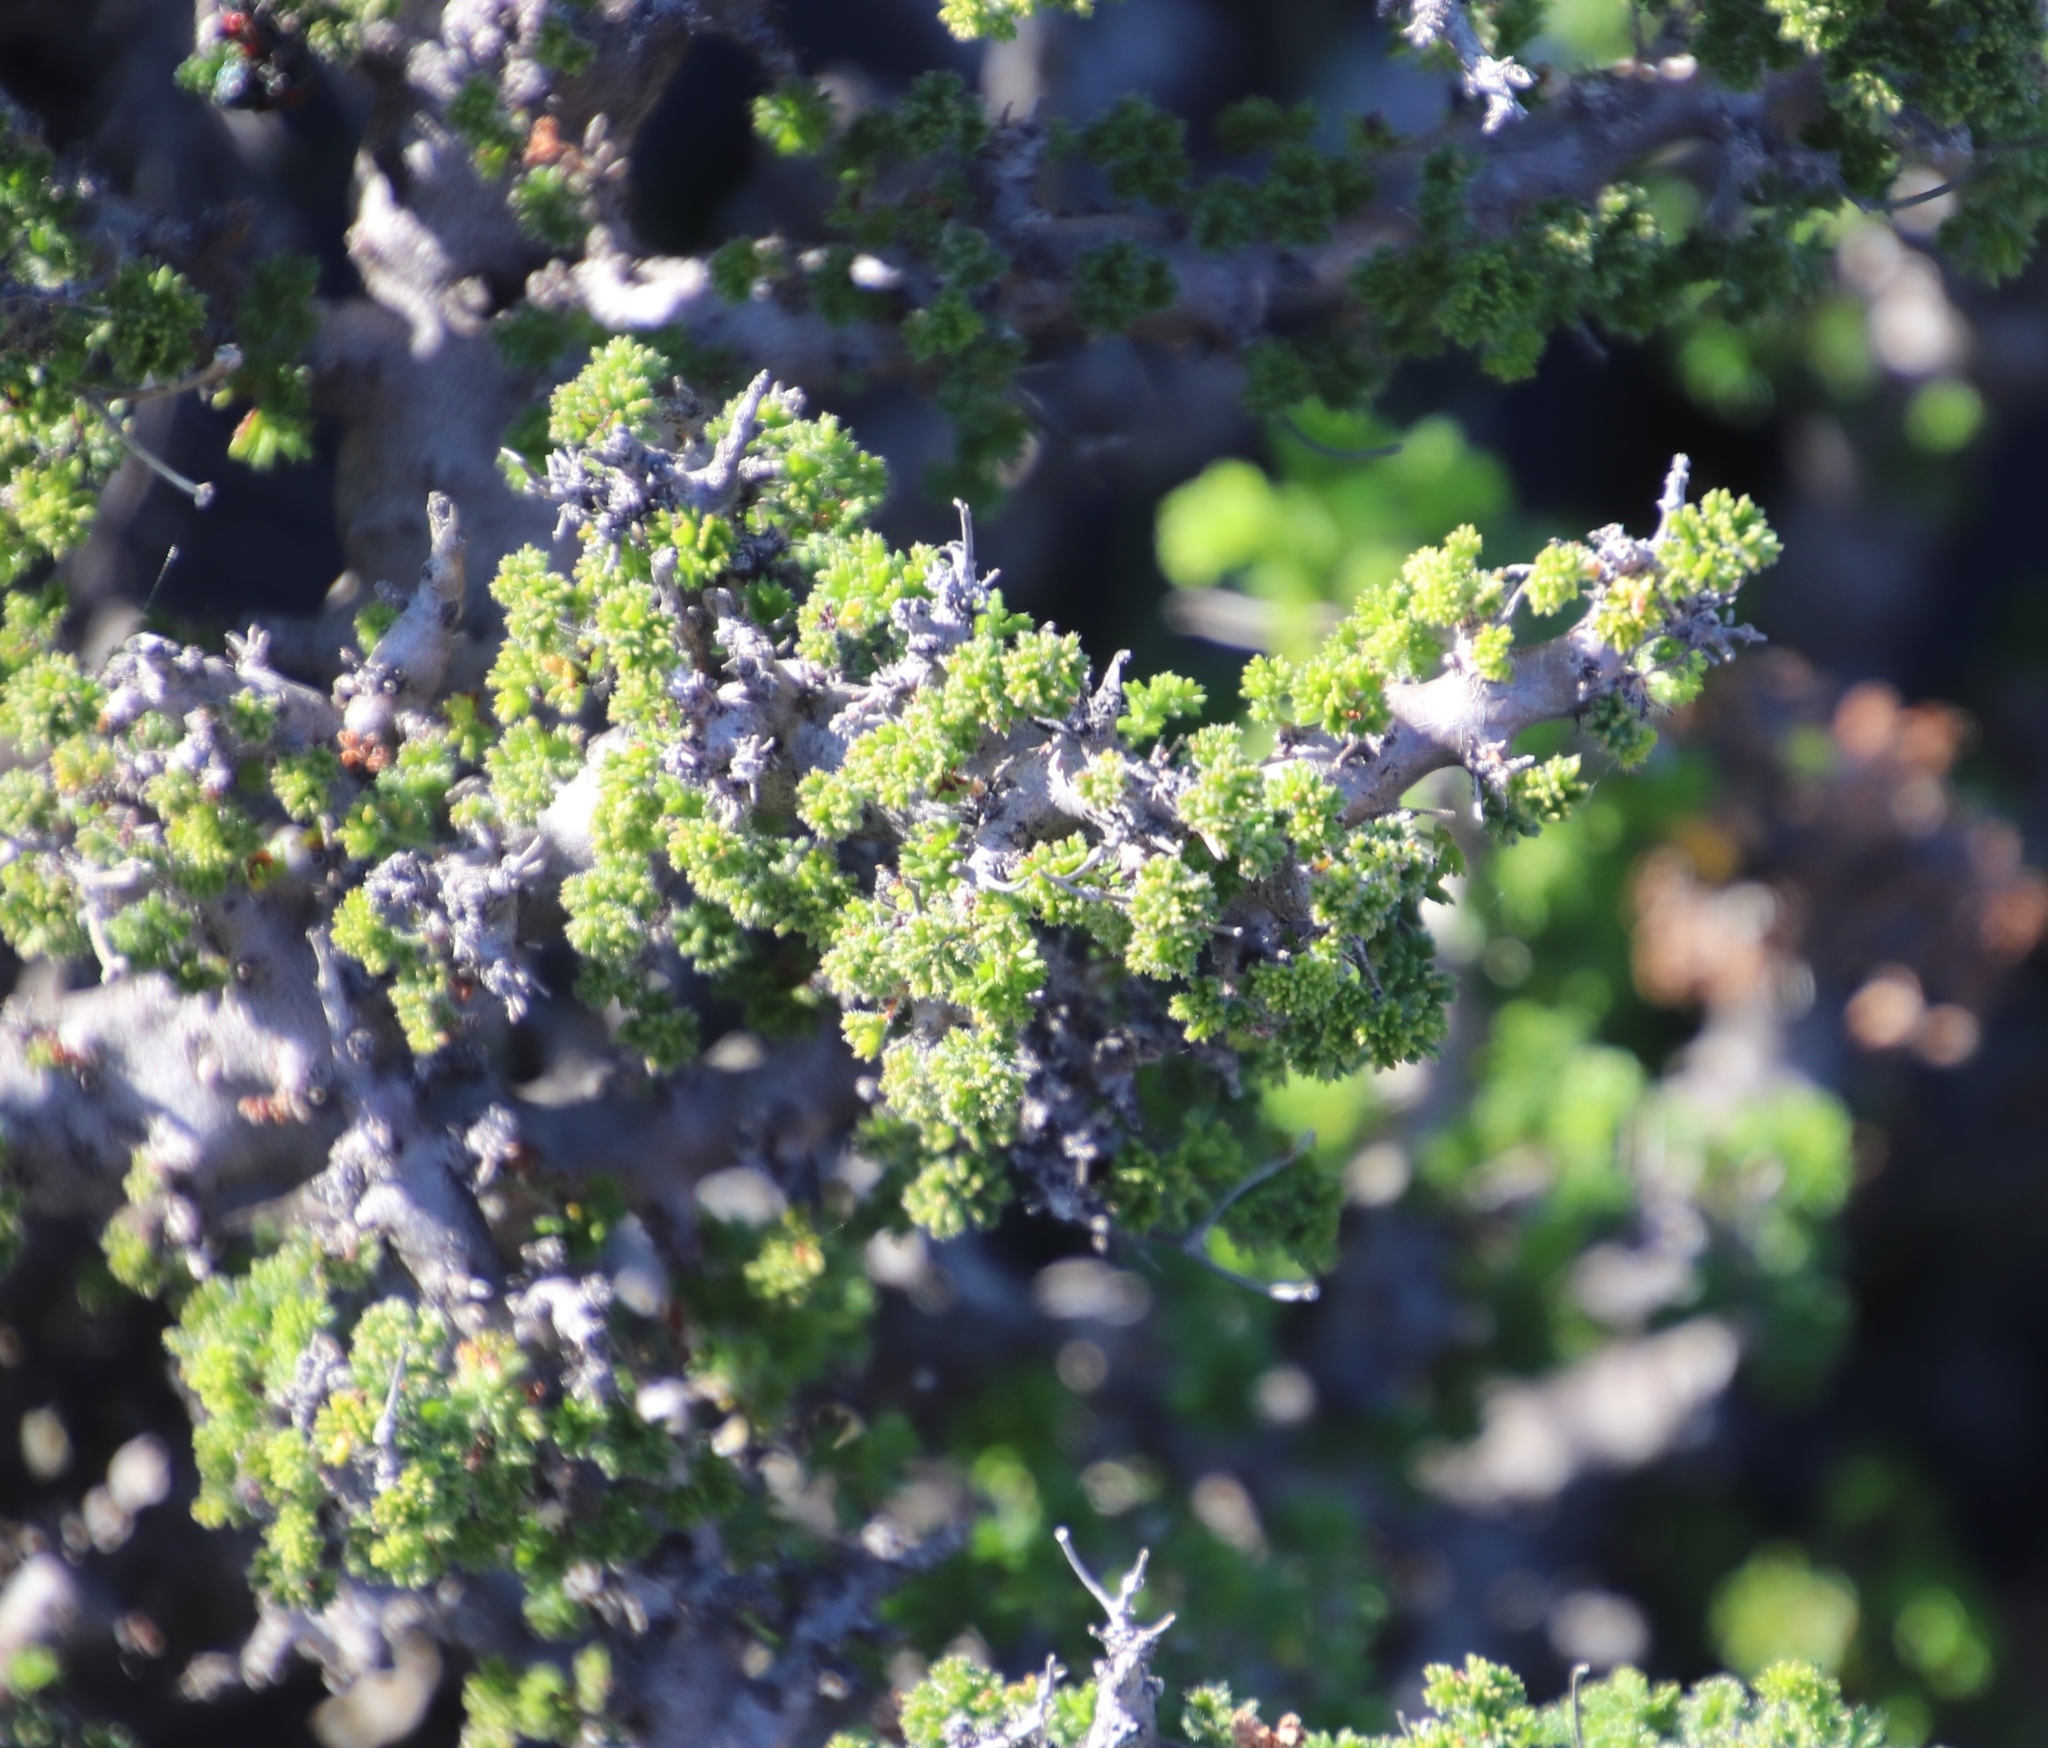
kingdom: Plantae
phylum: Tracheophyta
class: Magnoliopsida
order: Geraniales
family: Geraniaceae
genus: Pelargonium
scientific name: Pelargonium alternans
